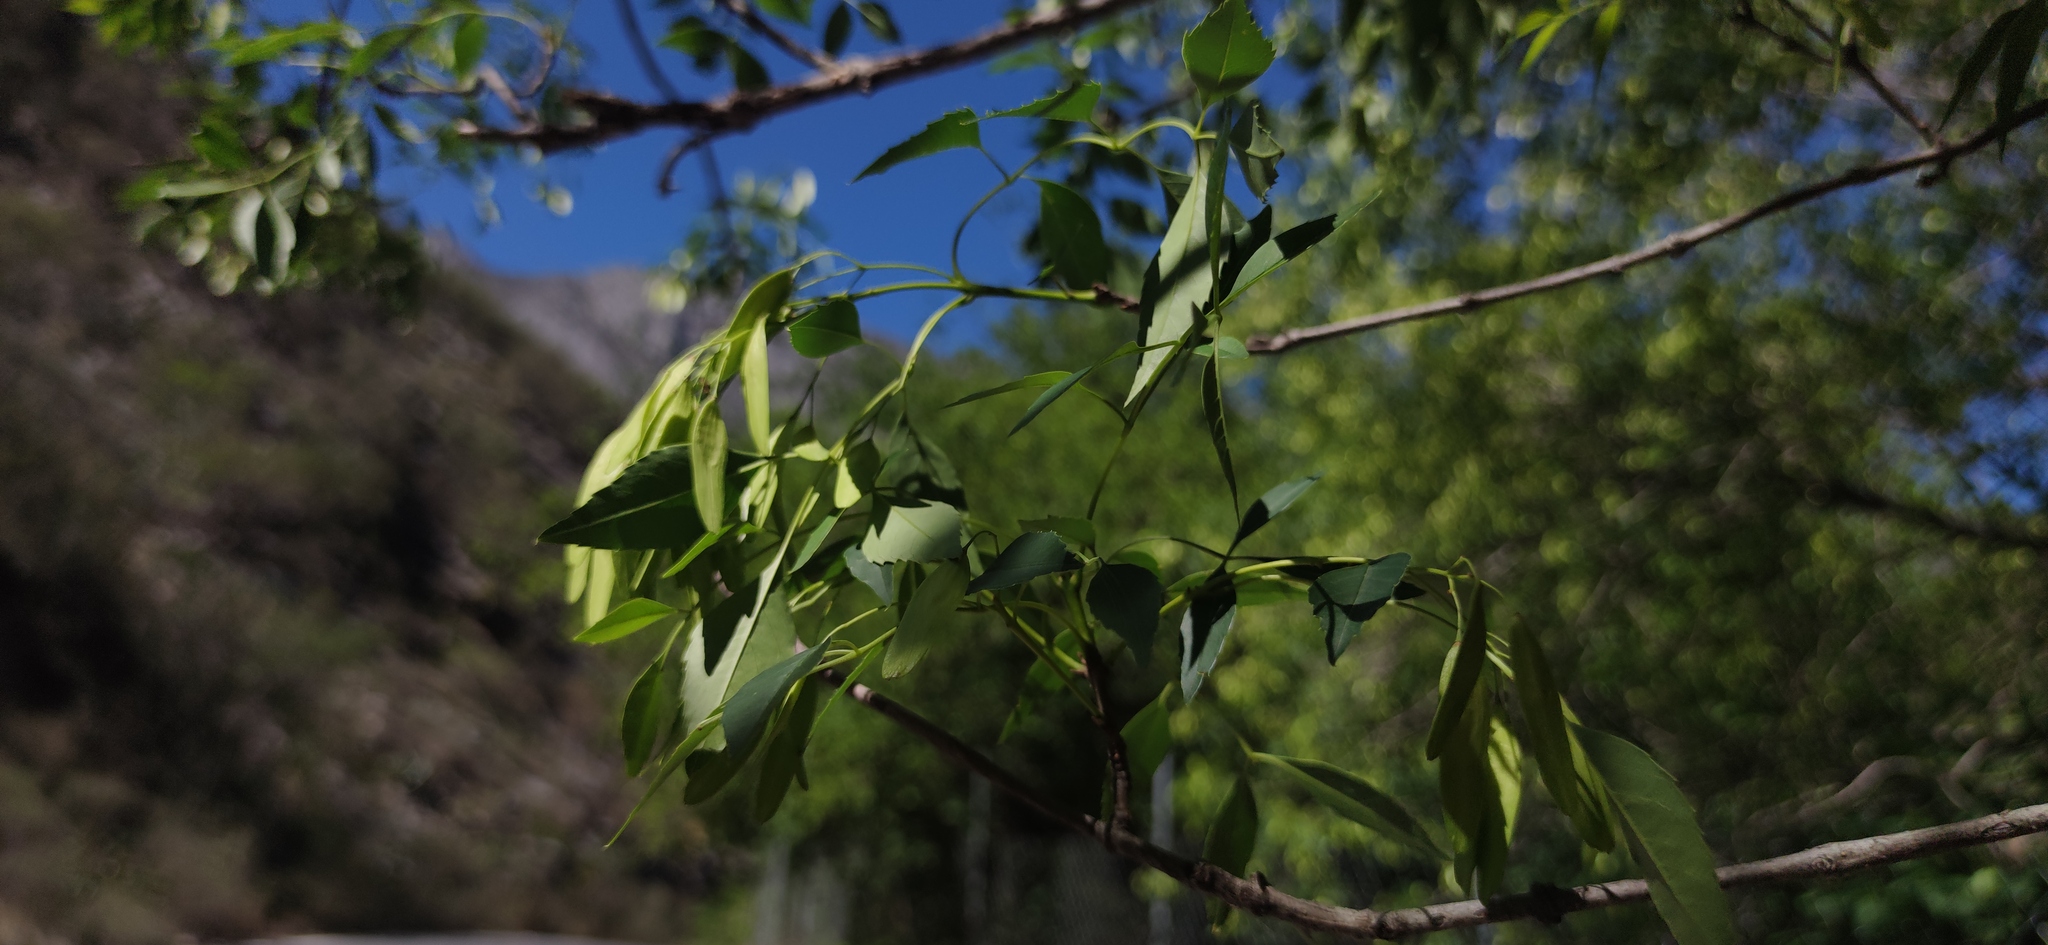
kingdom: Plantae
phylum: Tracheophyta
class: Magnoliopsida
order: Lamiales
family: Oleaceae
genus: Fraxinus
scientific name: Fraxinus cuspidata
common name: Fragrant ash
